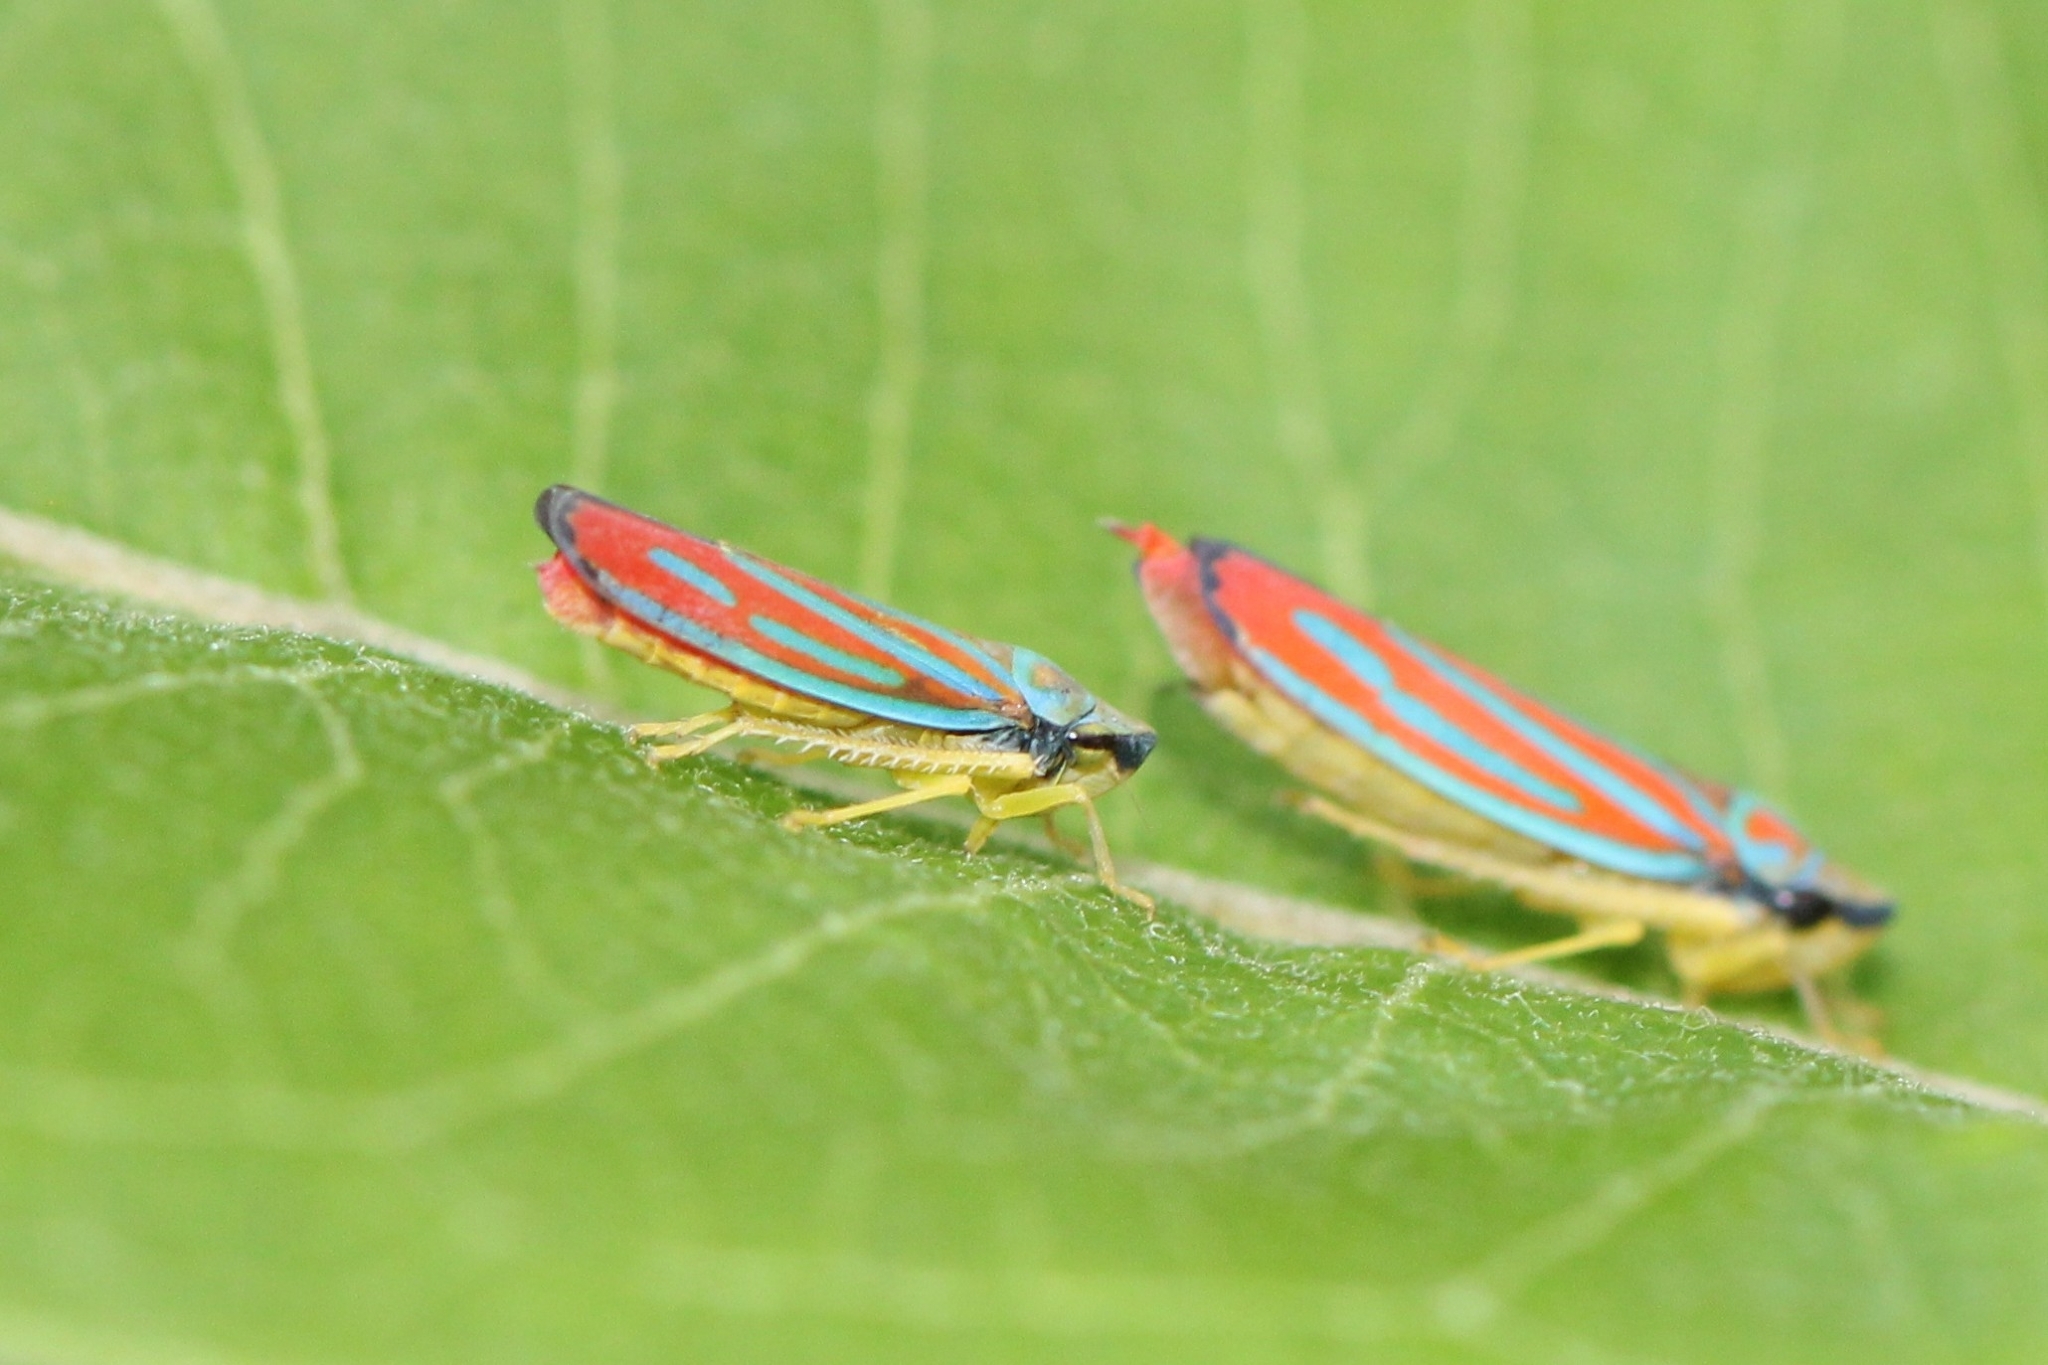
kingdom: Animalia
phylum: Arthropoda
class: Insecta
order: Hemiptera
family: Cicadellidae
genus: Graphocephala
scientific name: Graphocephala coccinea
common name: Candy-striped leafhopper
